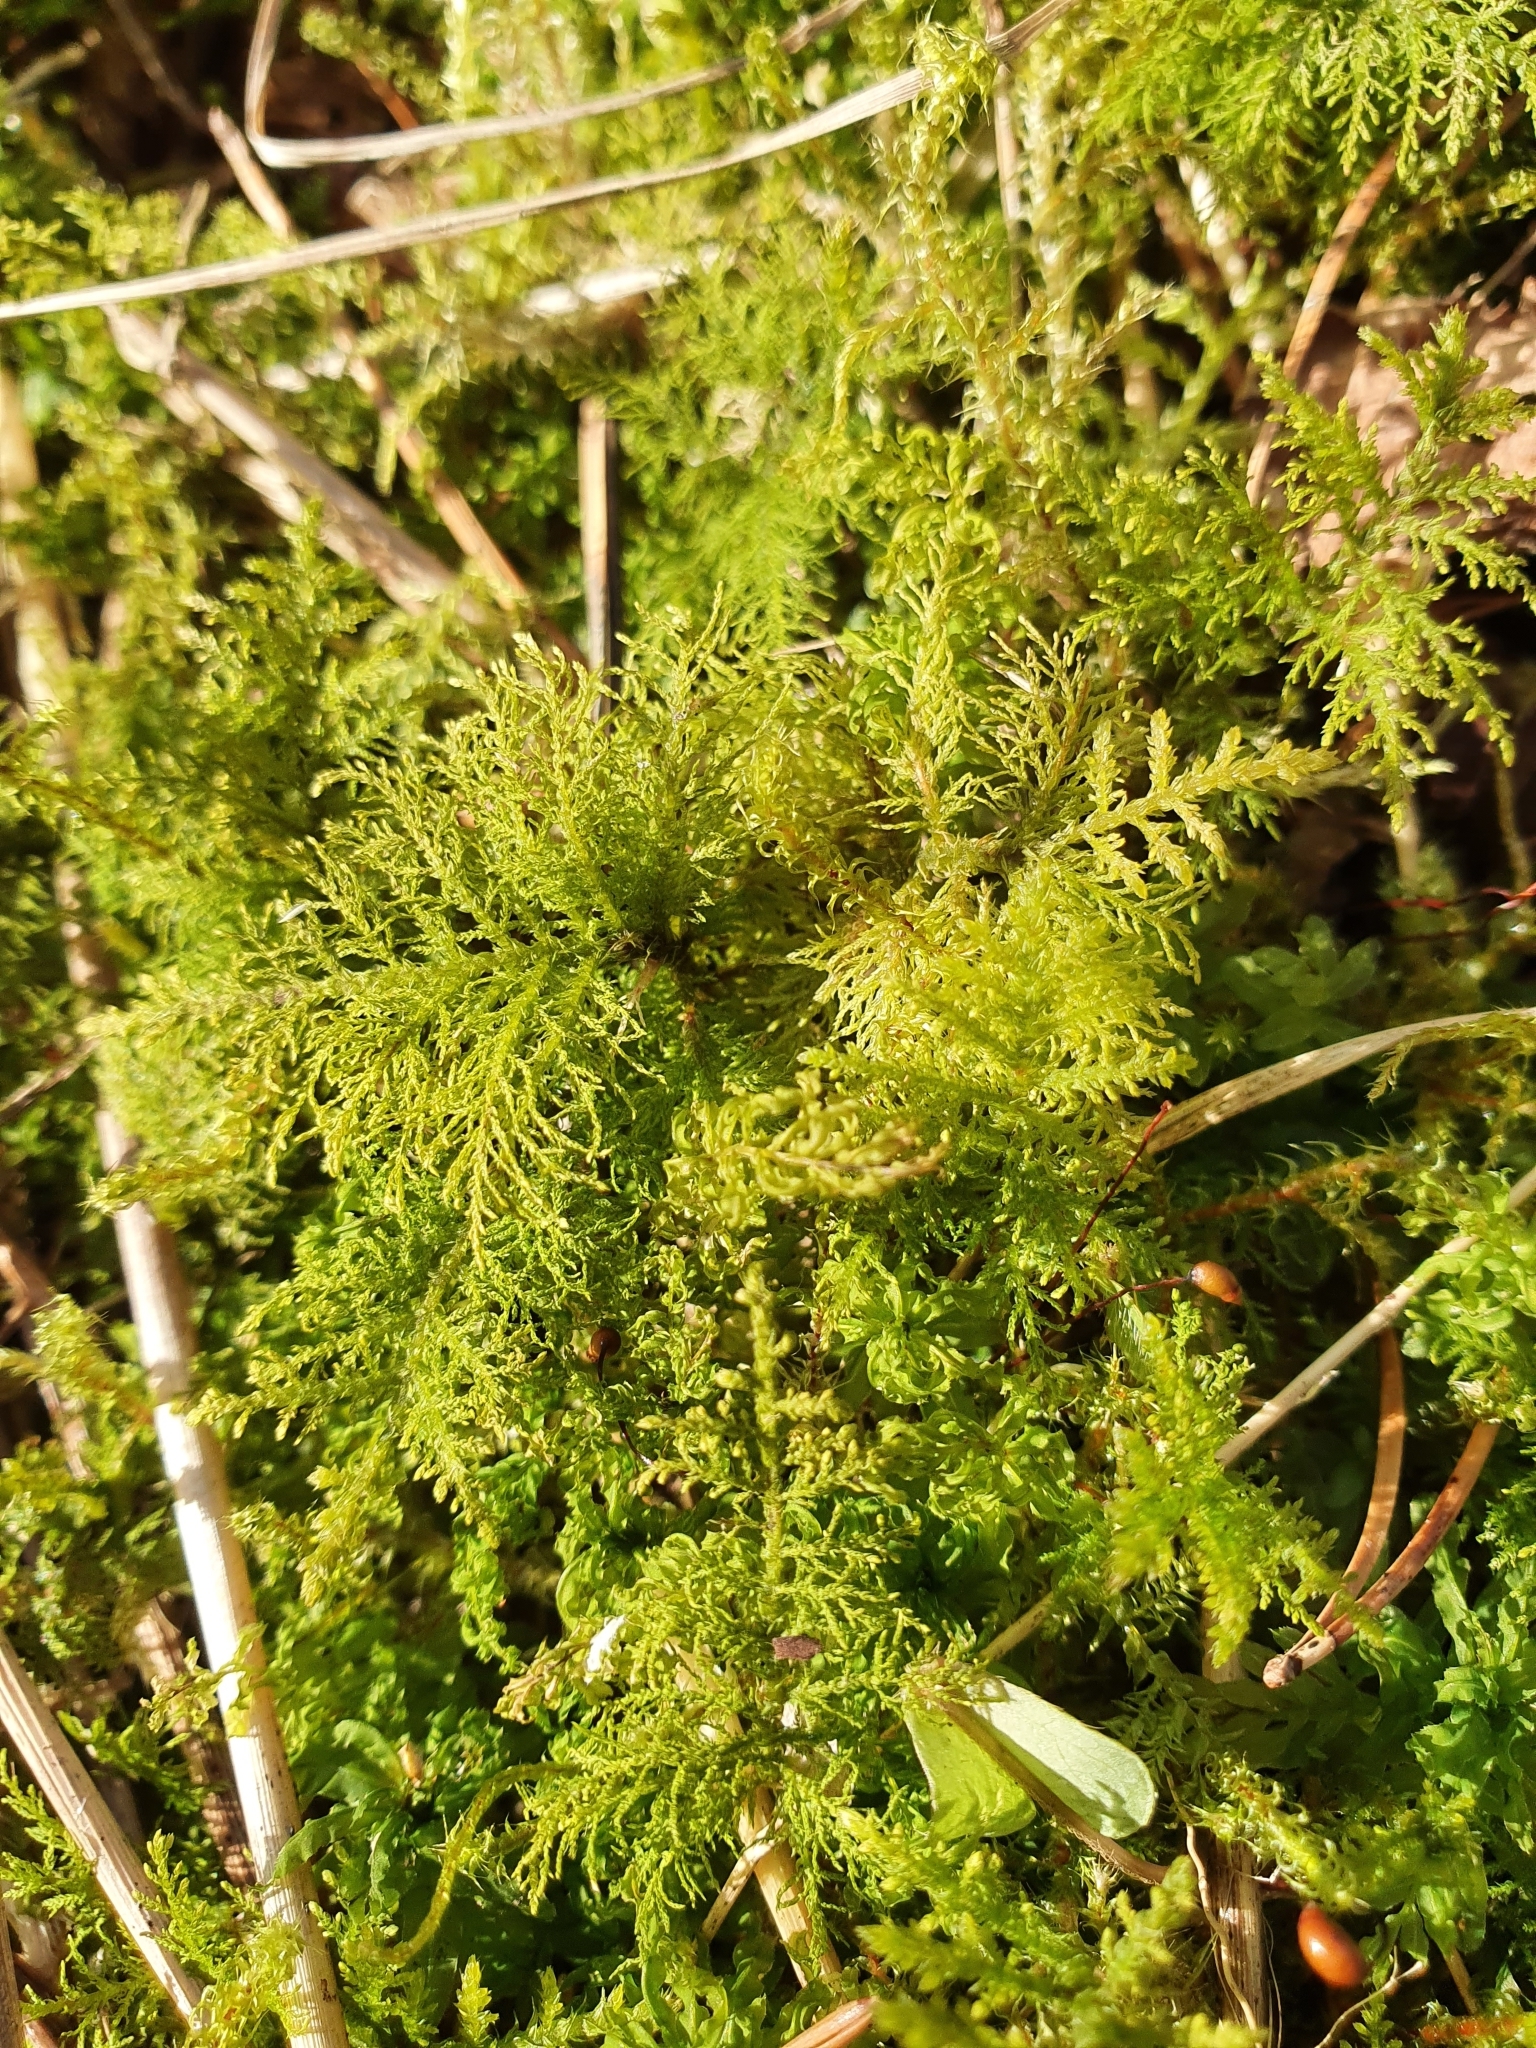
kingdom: Plantae
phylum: Bryophyta
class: Bryopsida
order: Hypnales
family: Thuidiaceae
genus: Thuidium
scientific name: Thuidium tamariscinum
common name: Common tamarisk-moss
